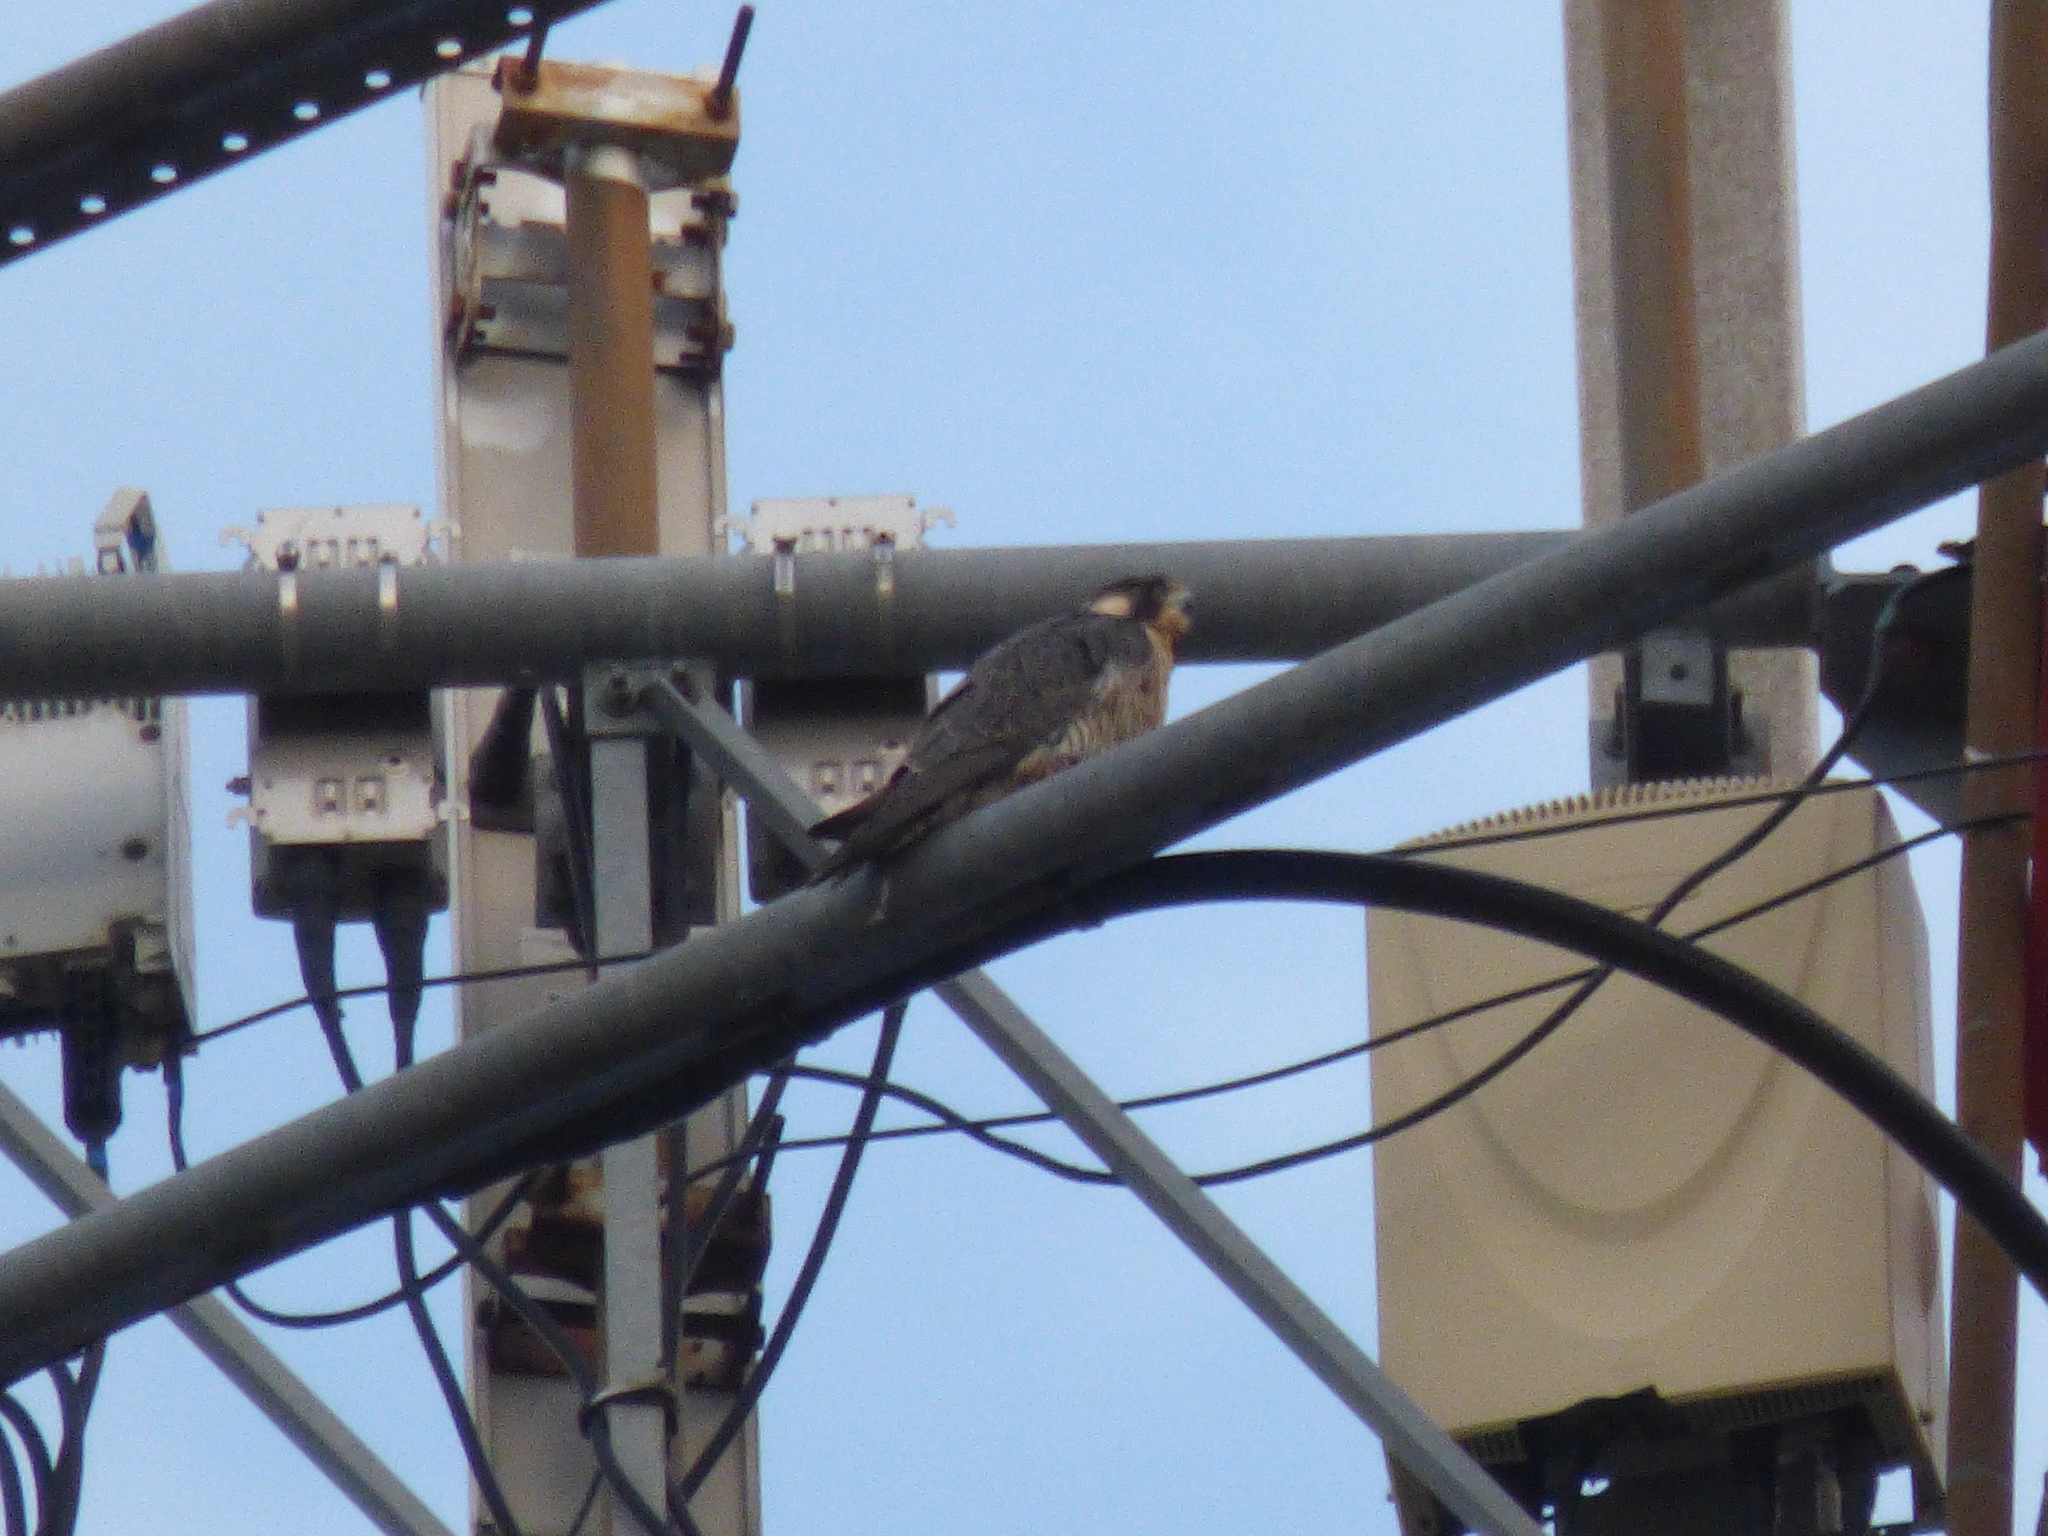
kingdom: Animalia
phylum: Chordata
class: Aves
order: Falconiformes
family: Falconidae
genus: Falco
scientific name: Falco peregrinus
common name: Peregrine falcon
